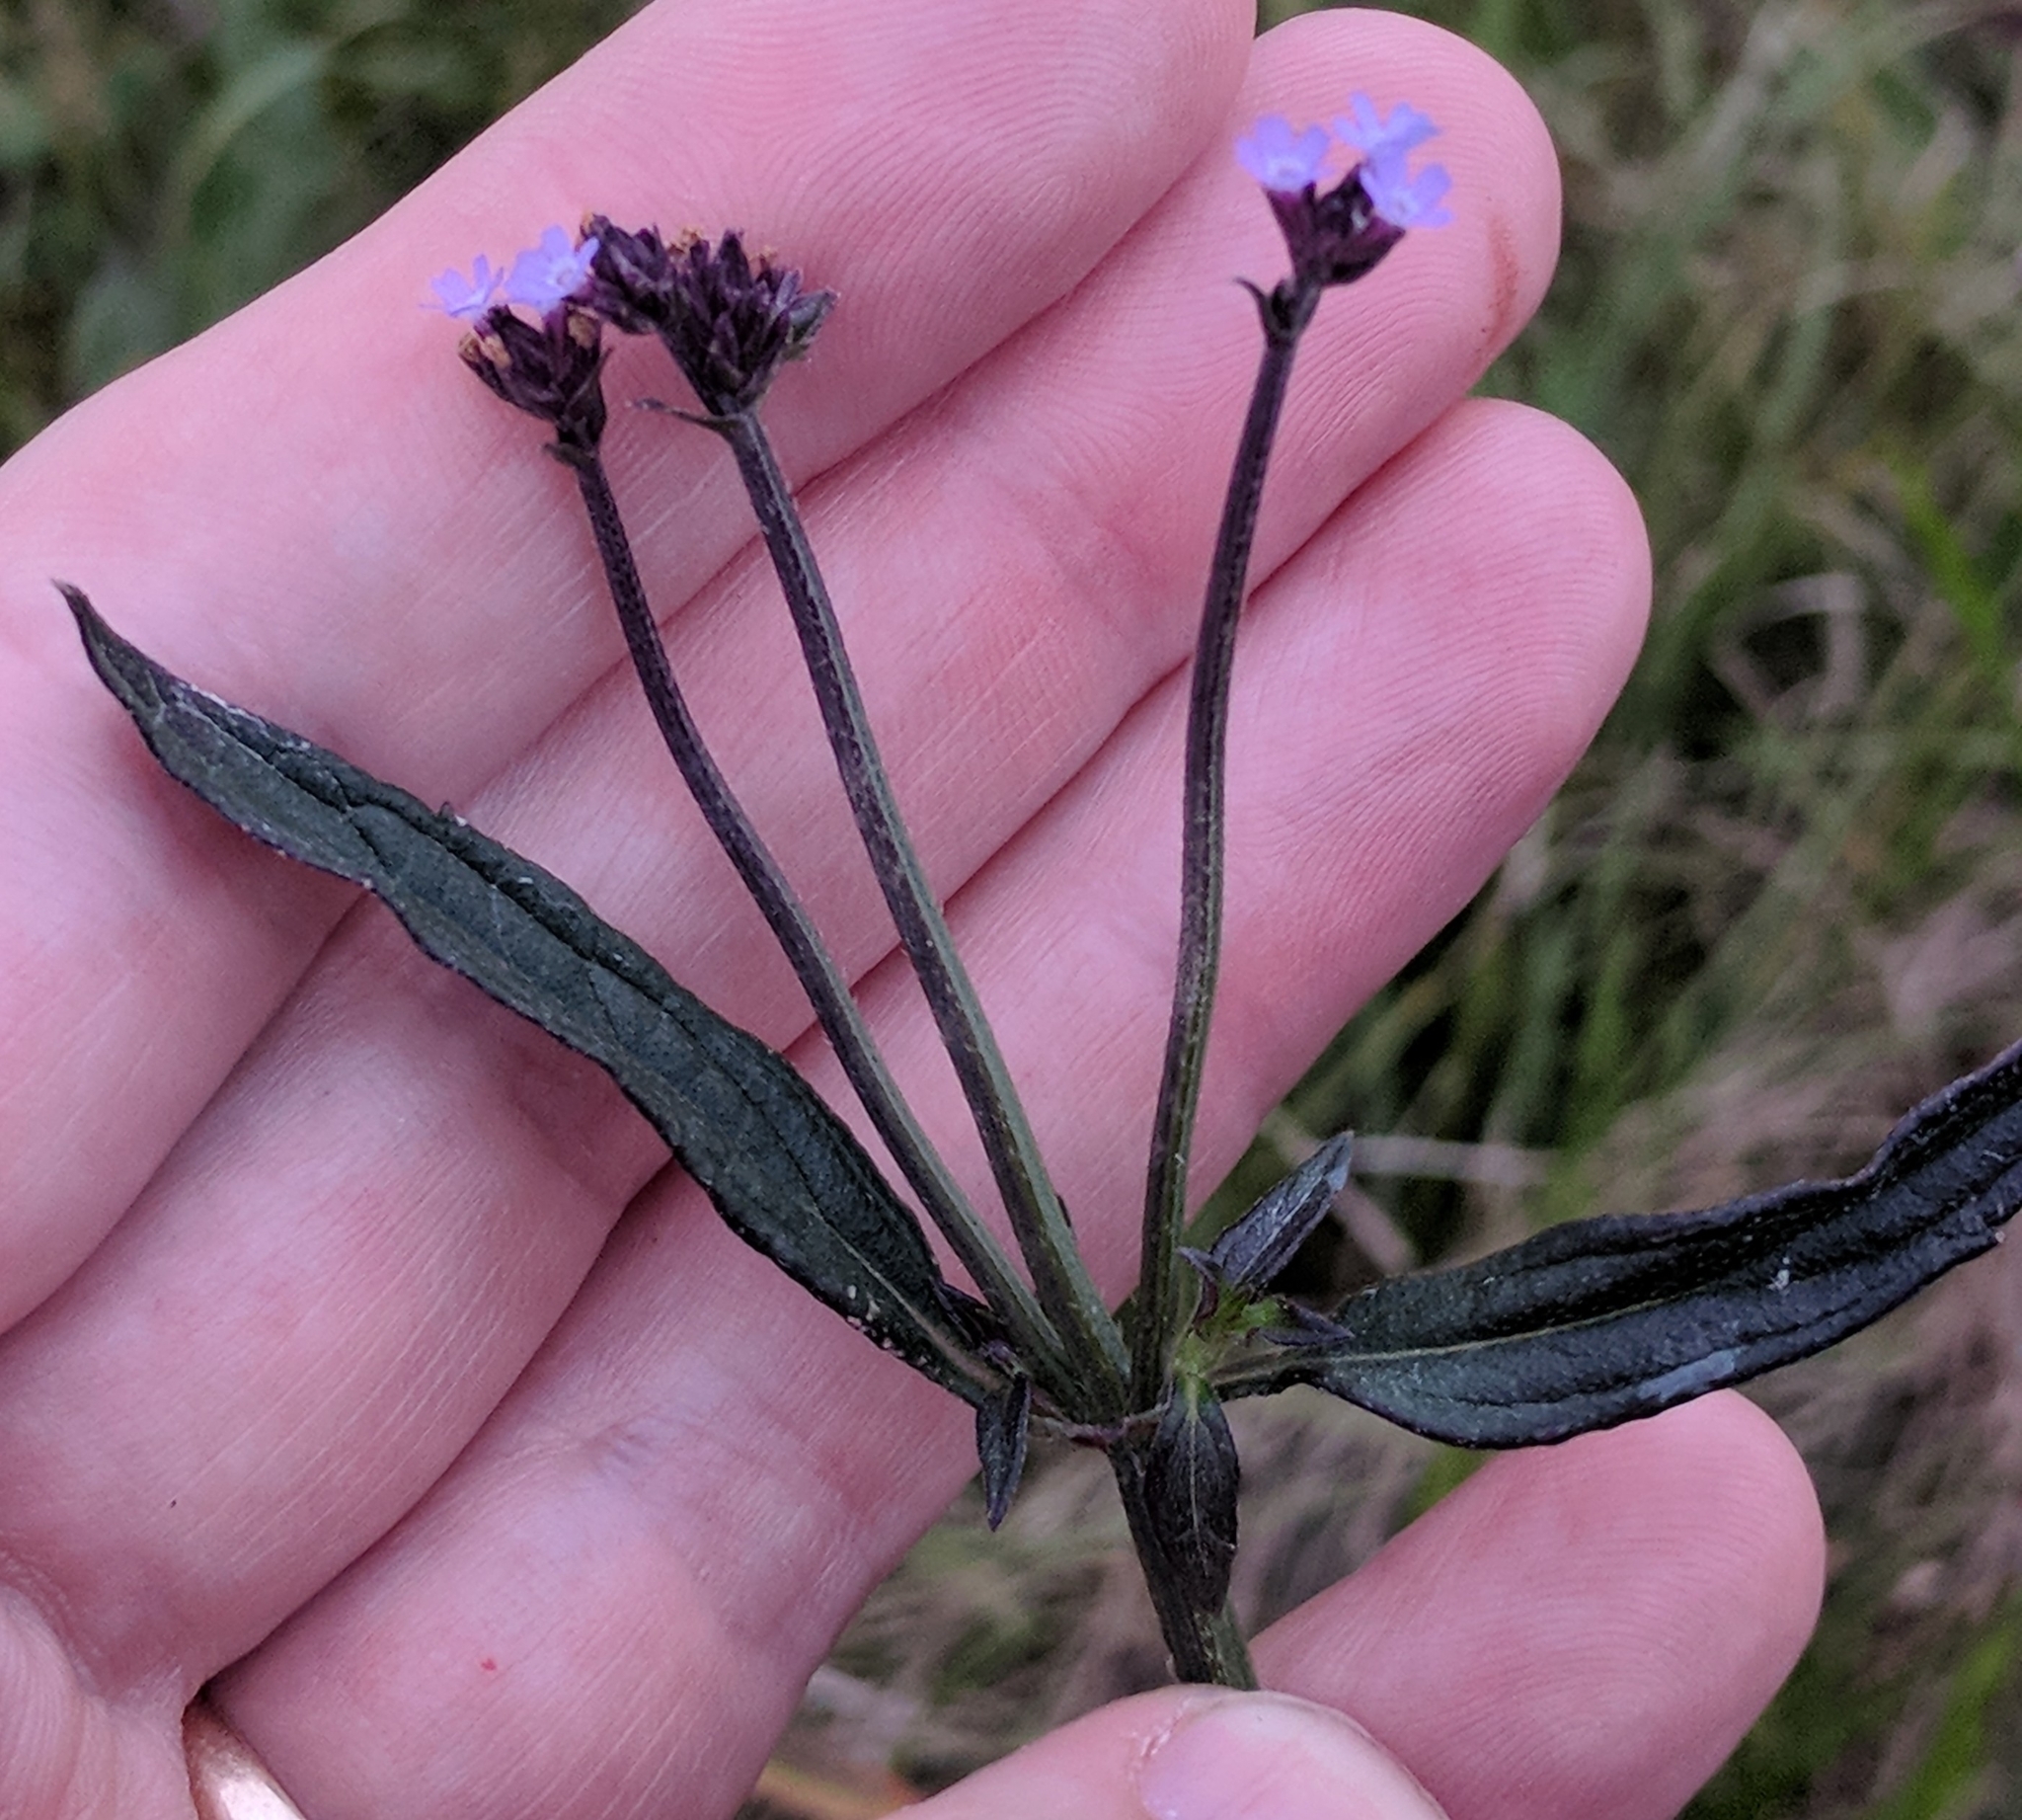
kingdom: Plantae
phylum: Tracheophyta
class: Magnoliopsida
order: Lamiales
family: Verbenaceae
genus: Verbena
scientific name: Verbena brasiliensis
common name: Brazilian vervain
